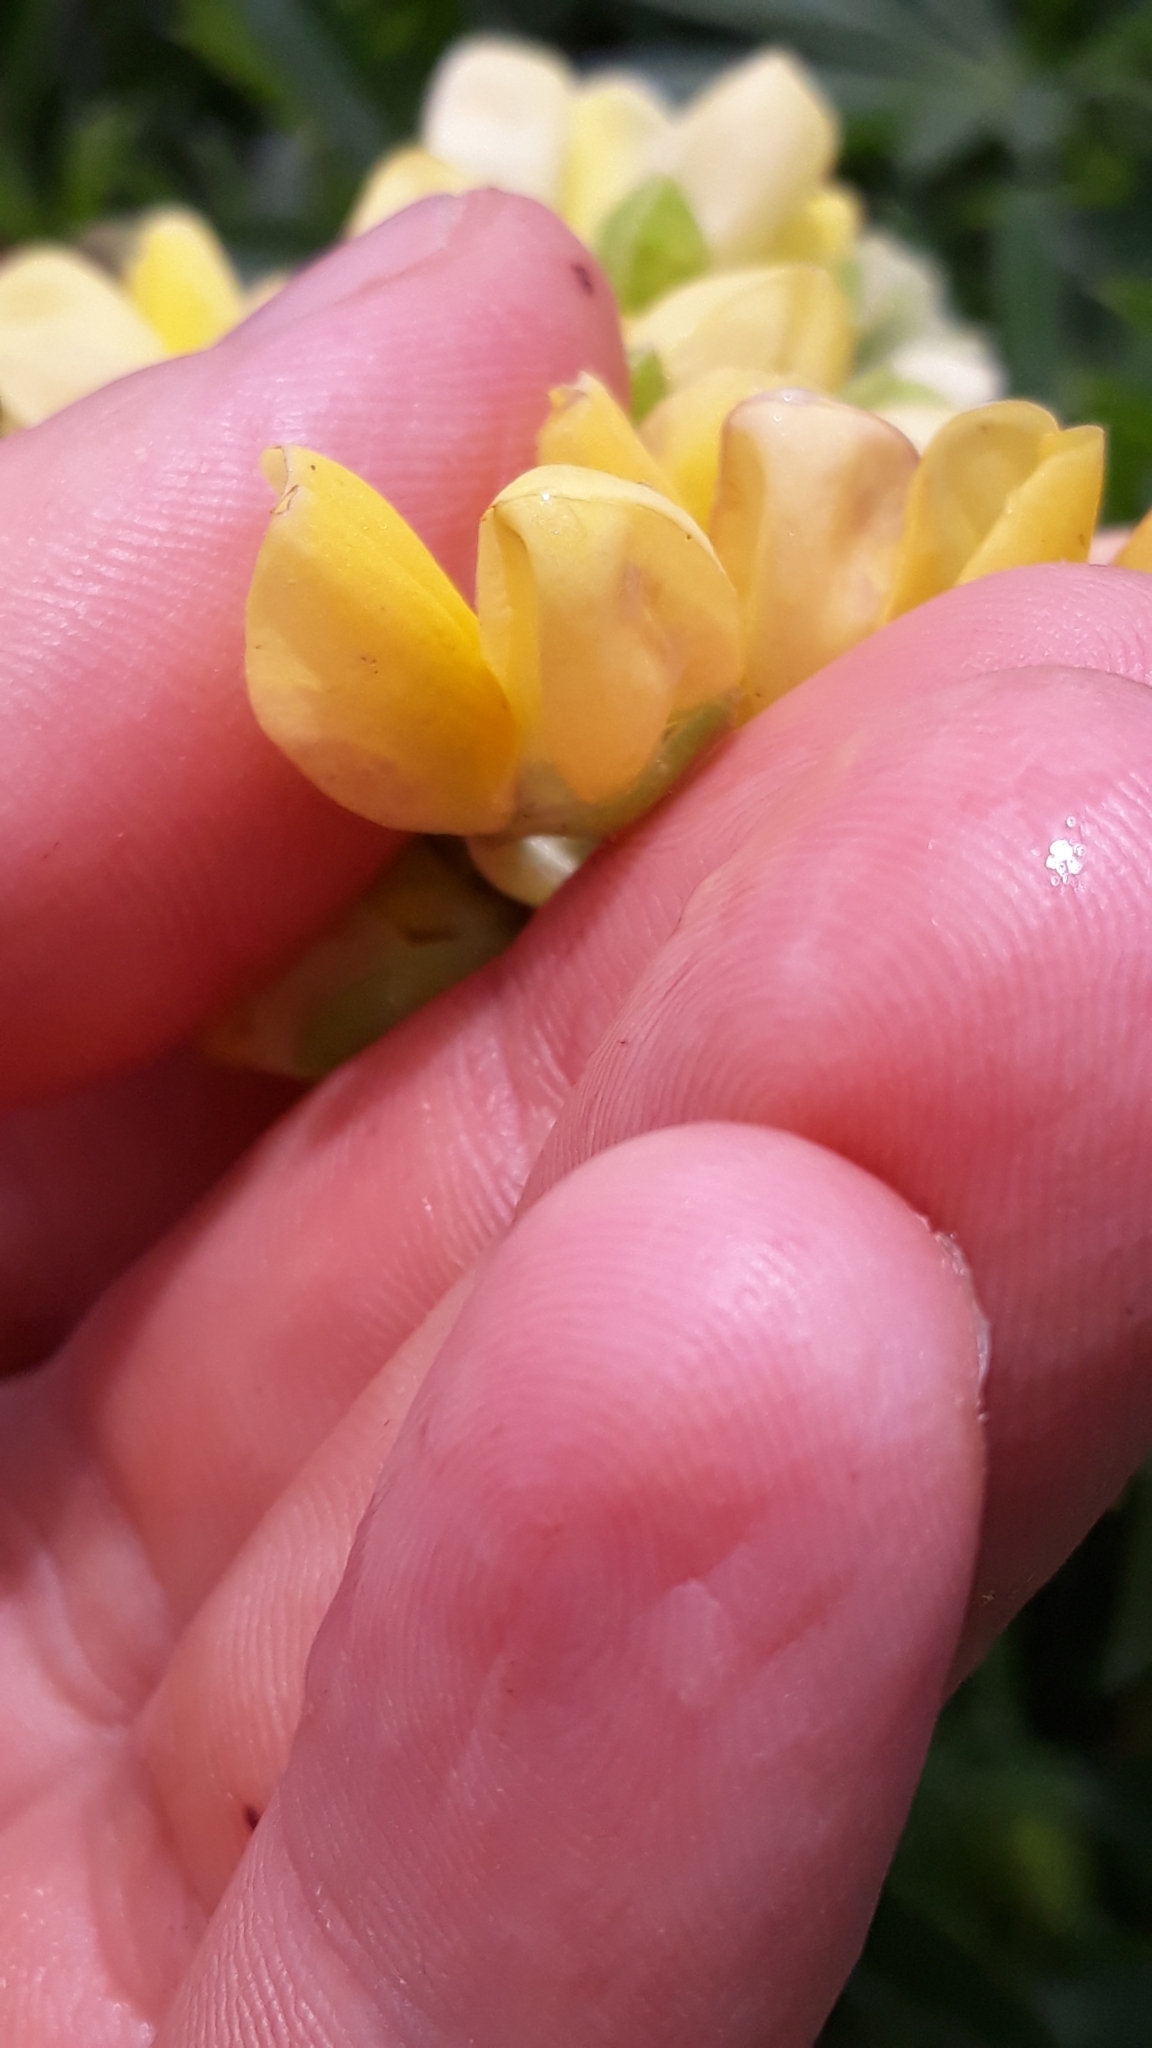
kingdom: Plantae
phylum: Tracheophyta
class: Magnoliopsida
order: Fabales
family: Fabaceae
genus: Lupinus
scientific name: Lupinus arboreus
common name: Yellow bush lupine
